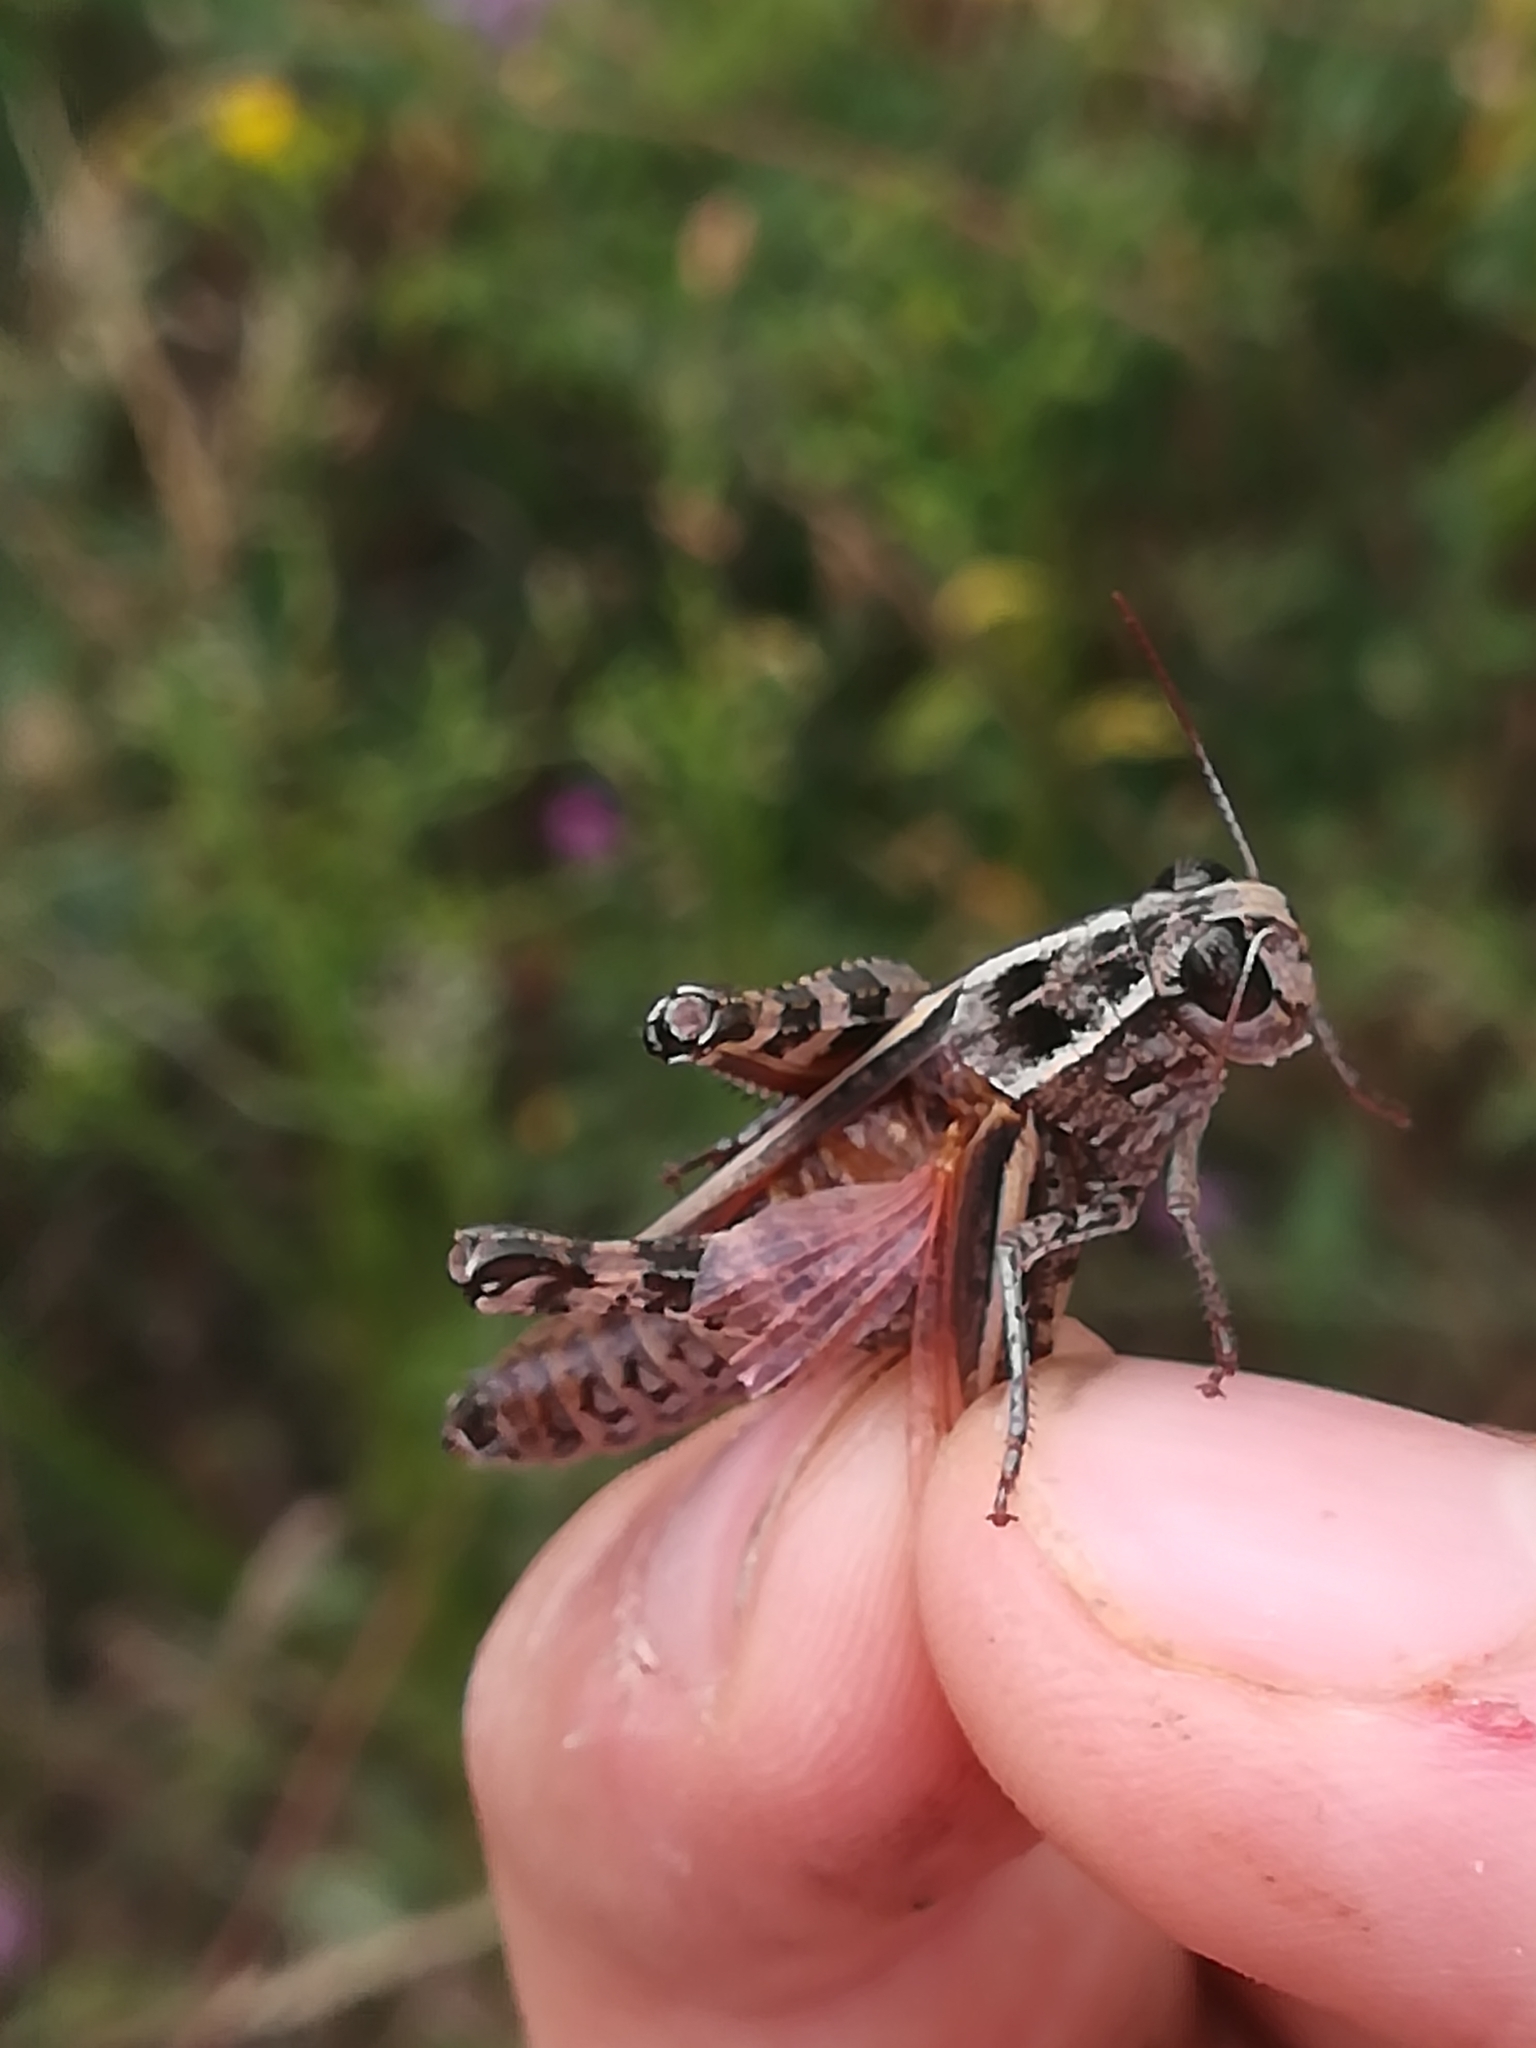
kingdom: Animalia
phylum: Arthropoda
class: Insecta
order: Orthoptera
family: Acrididae
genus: Calliptamus
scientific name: Calliptamus italicus
